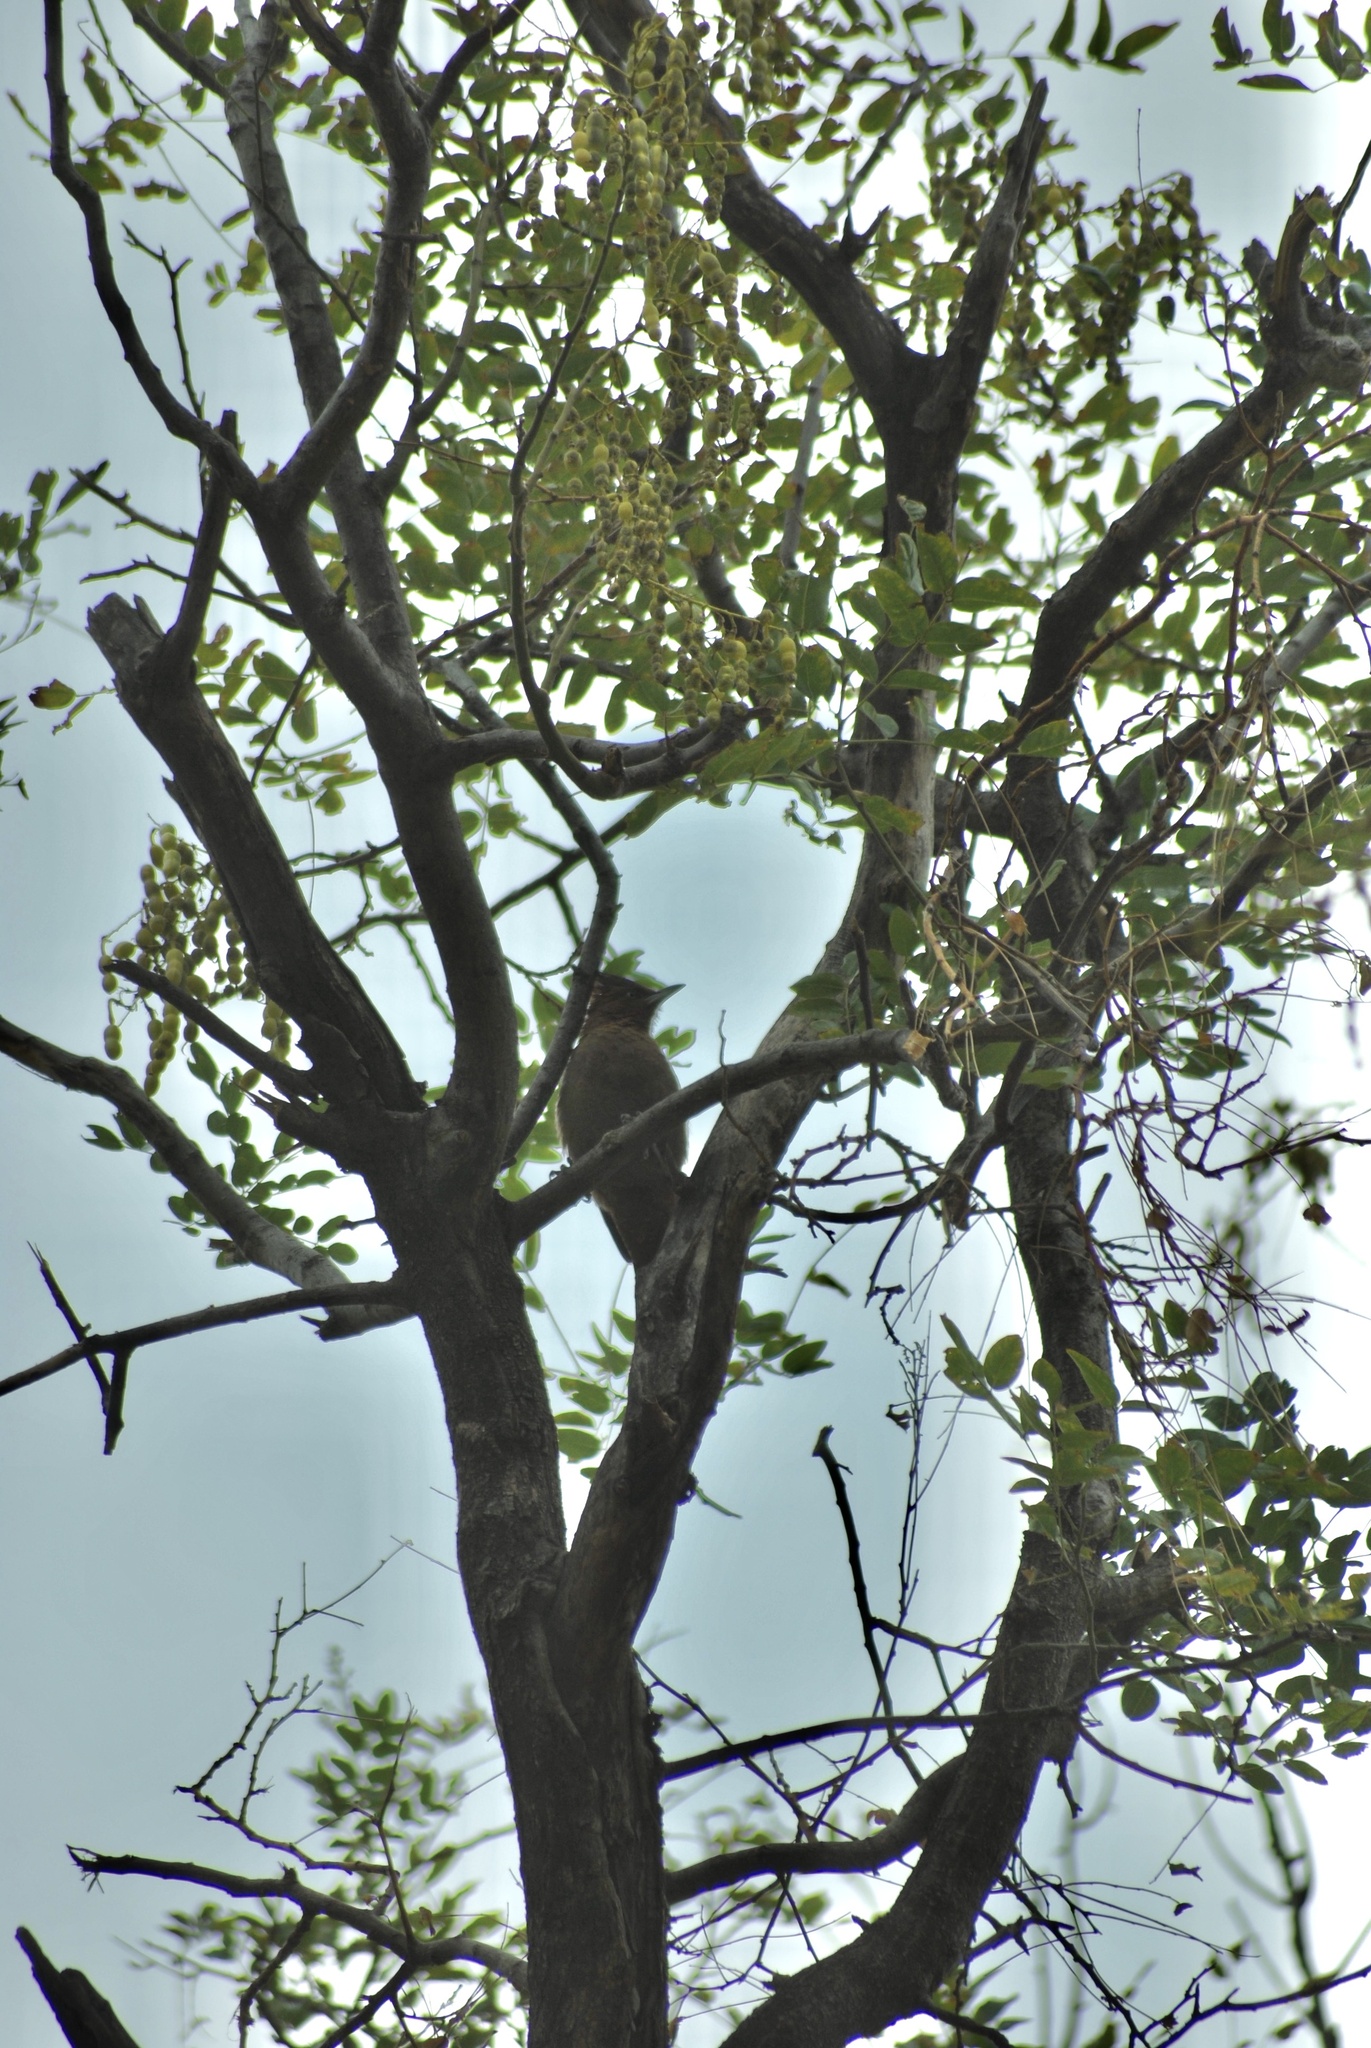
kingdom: Animalia
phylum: Chordata
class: Aves
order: Passeriformes
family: Furnariidae
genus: Pseudoseisura
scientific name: Pseudoseisura lophotes
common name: Brown cacholote
